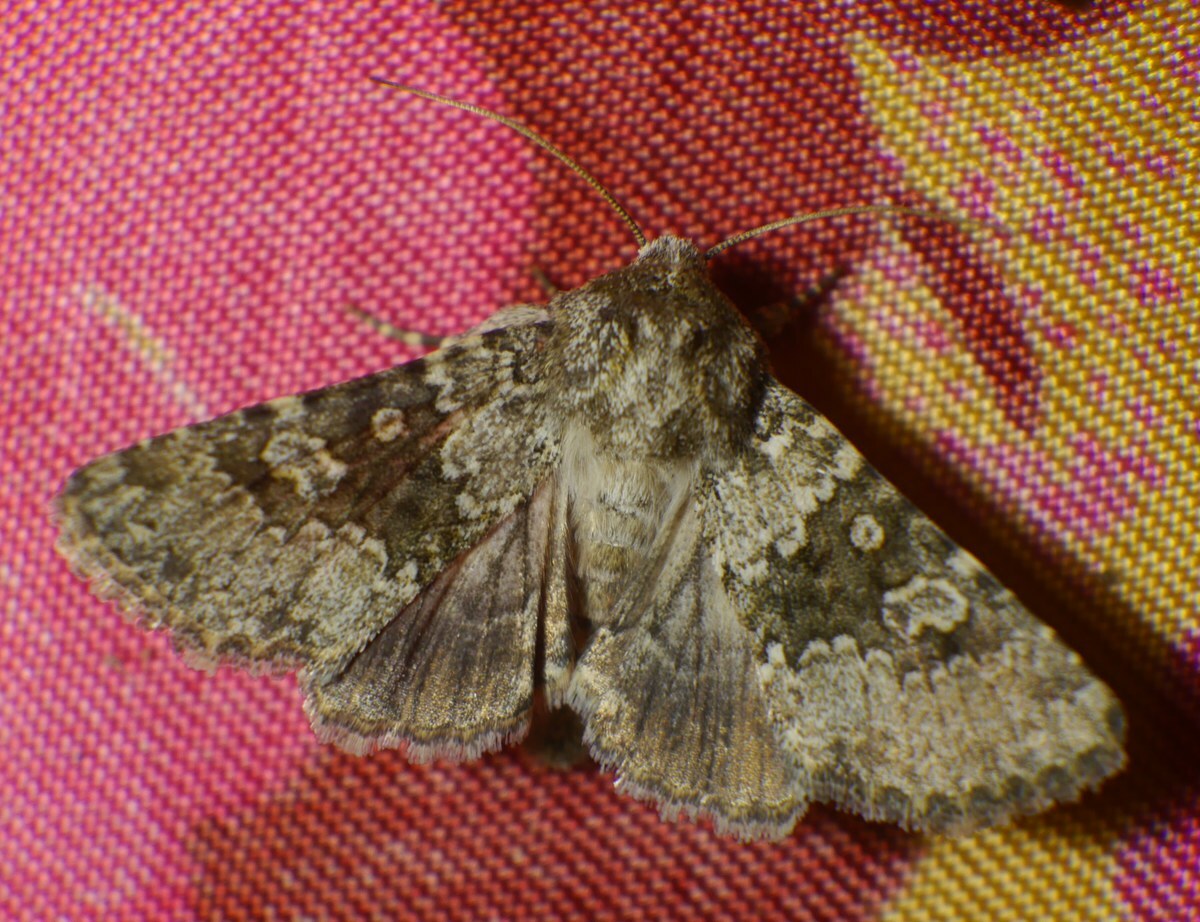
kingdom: Animalia
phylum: Arthropoda
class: Insecta
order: Lepidoptera
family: Noctuidae
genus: Hecatera
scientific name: Hecatera dysodea
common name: Small ranunculus
